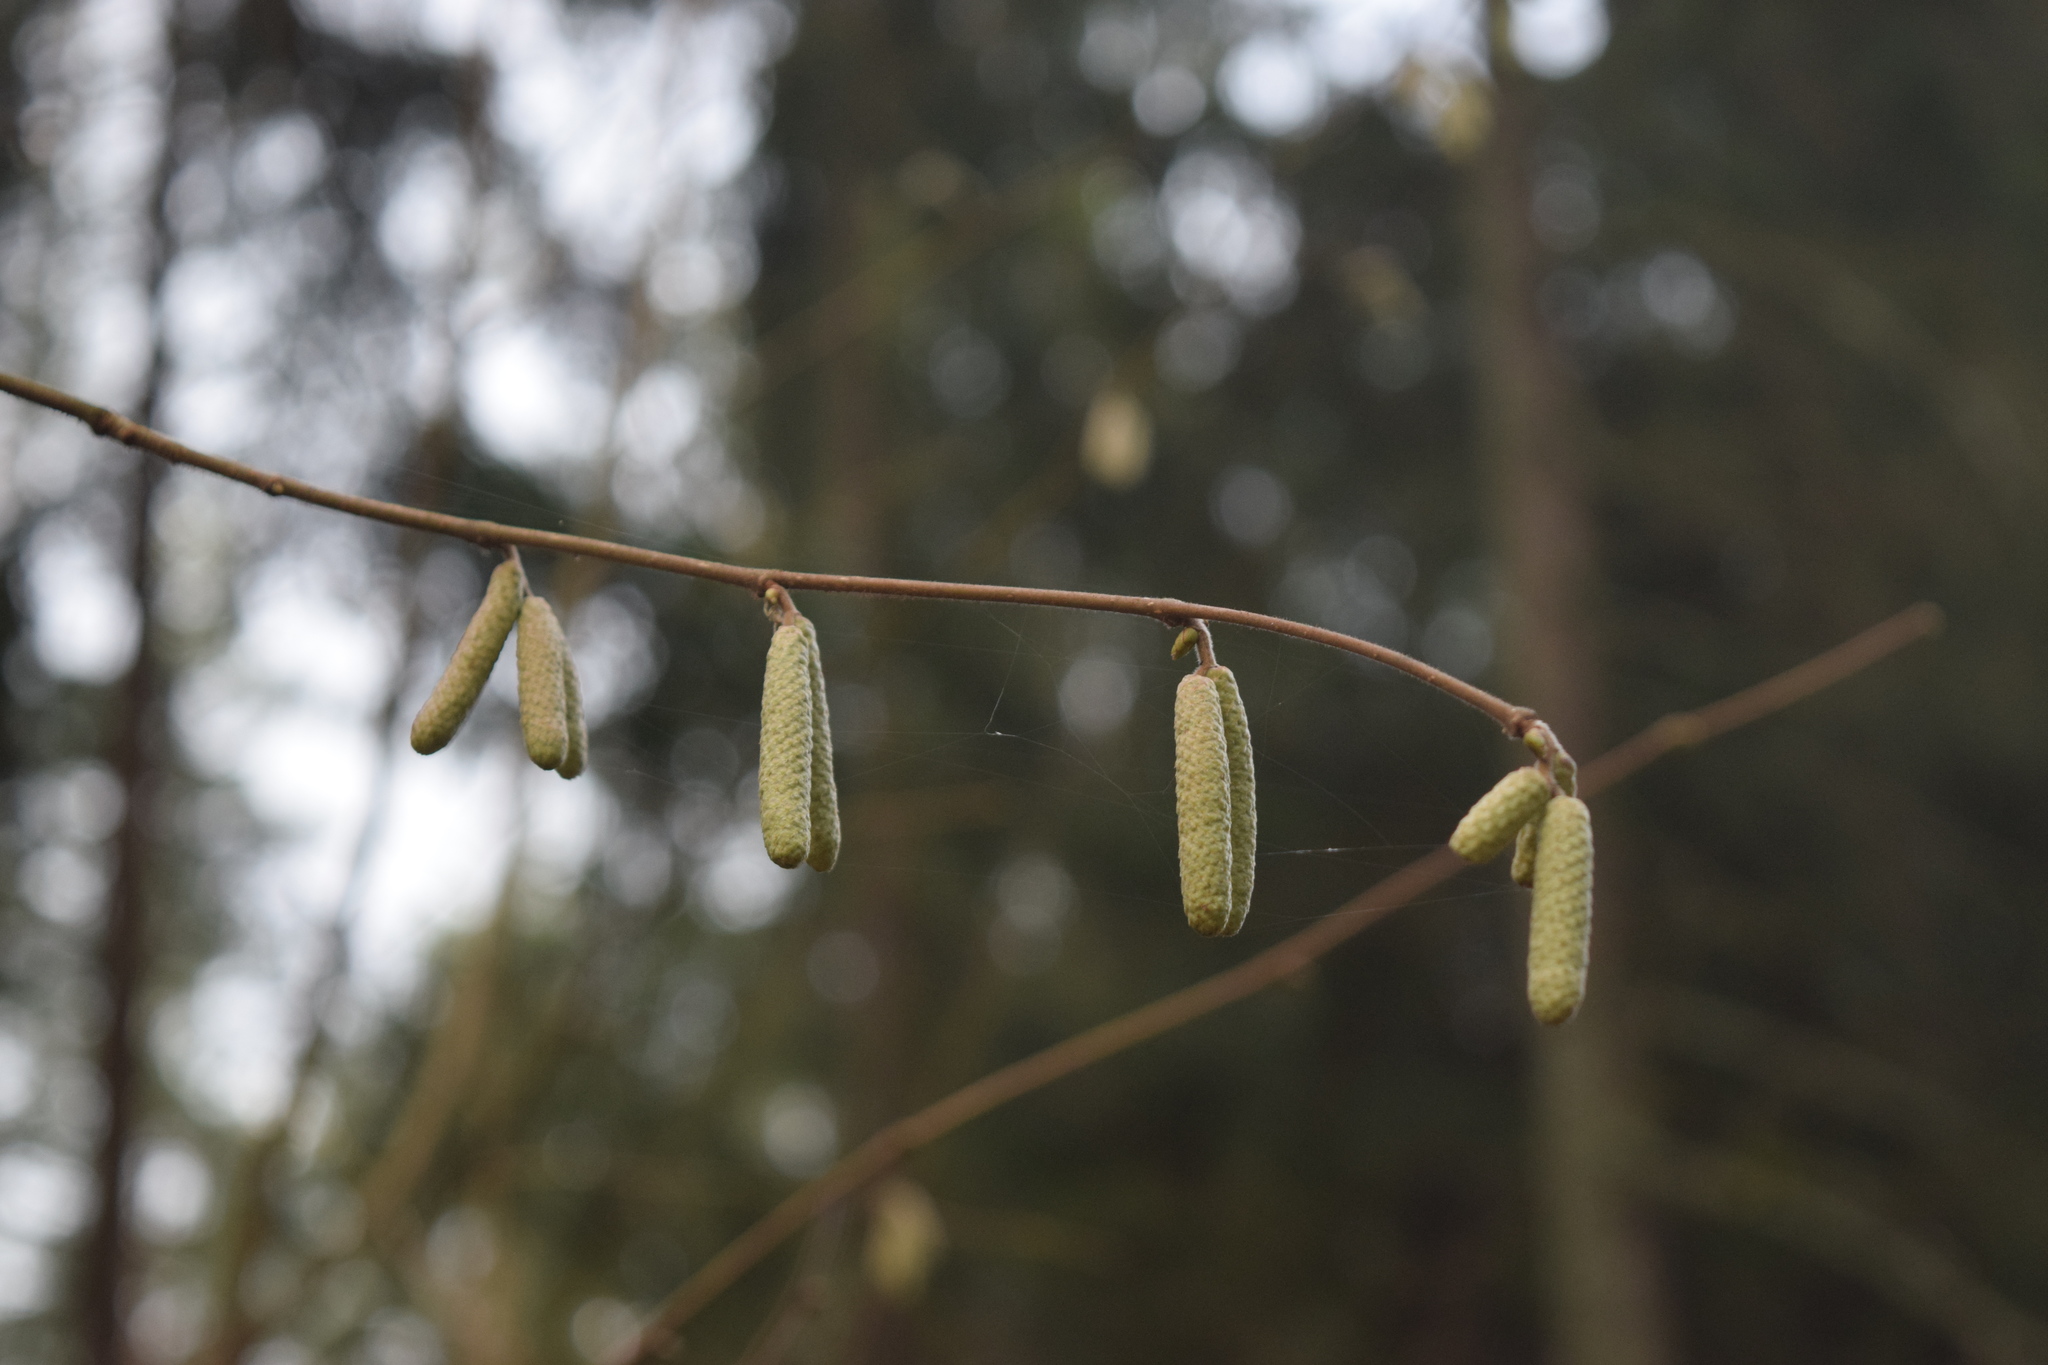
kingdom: Plantae
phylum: Tracheophyta
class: Magnoliopsida
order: Fagales
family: Betulaceae
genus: Corylus
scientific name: Corylus avellana
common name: European hazel
